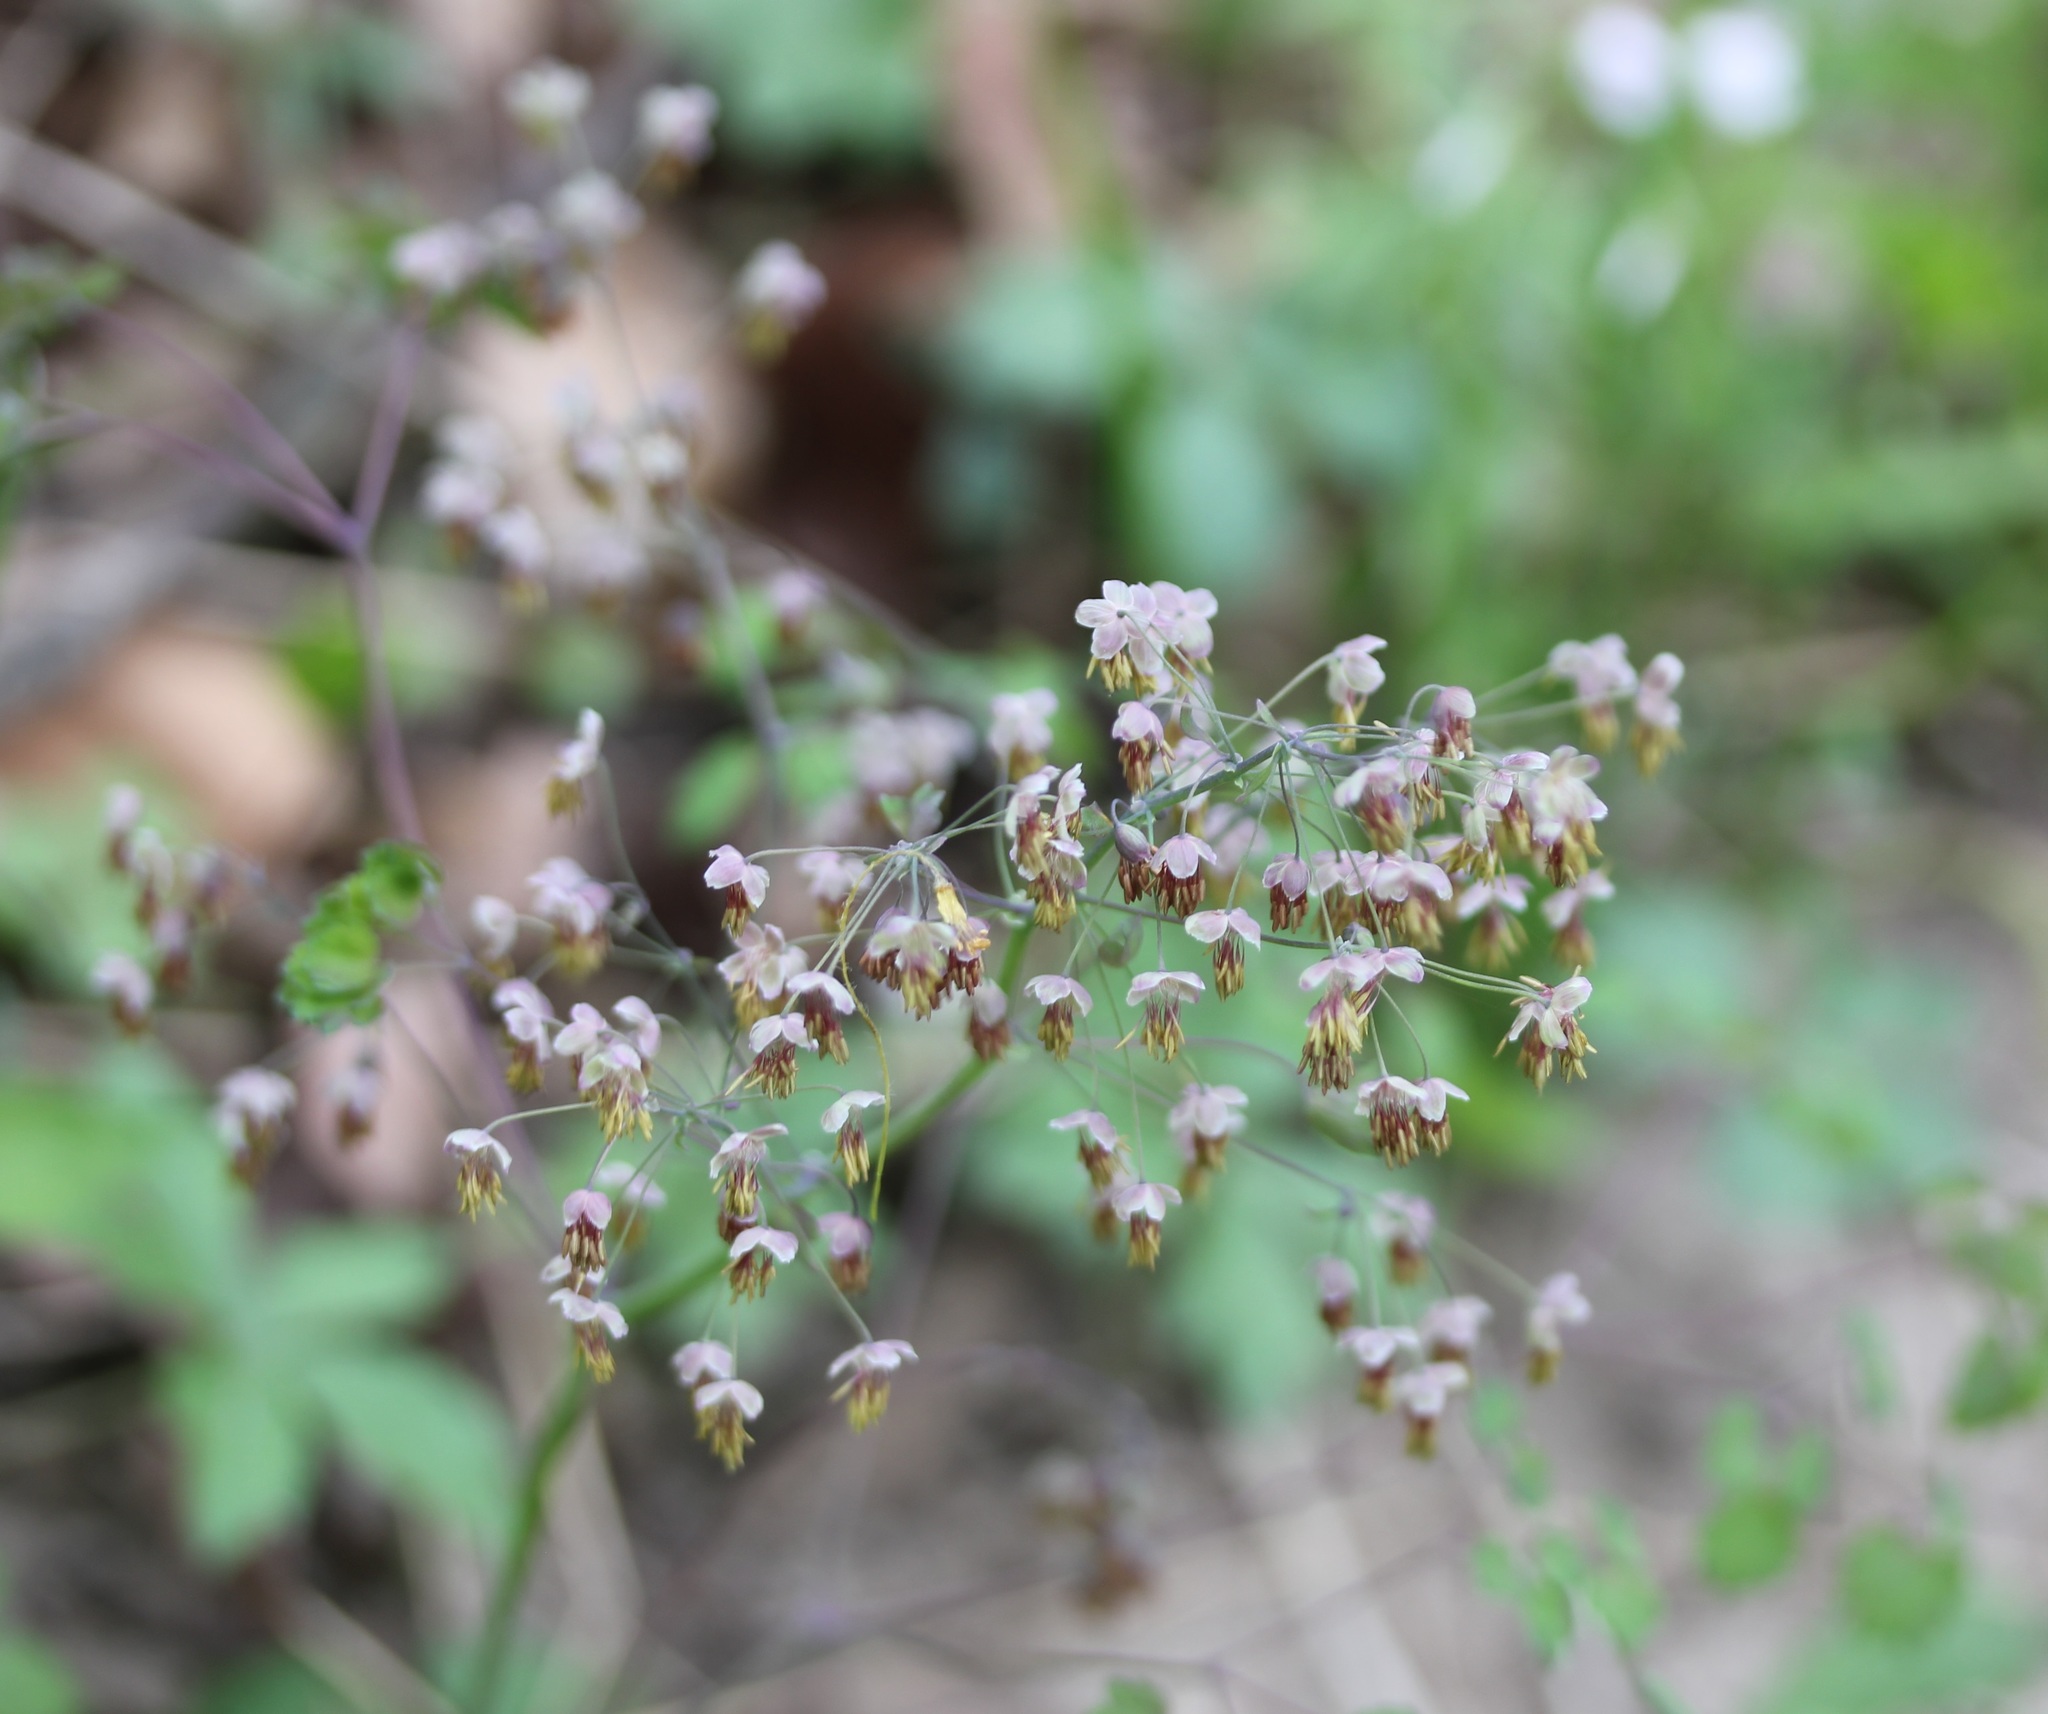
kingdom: Plantae
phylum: Tracheophyta
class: Magnoliopsida
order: Ranunculales
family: Ranunculaceae
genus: Thalictrum
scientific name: Thalictrum dioicum
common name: Early meadow-rue
